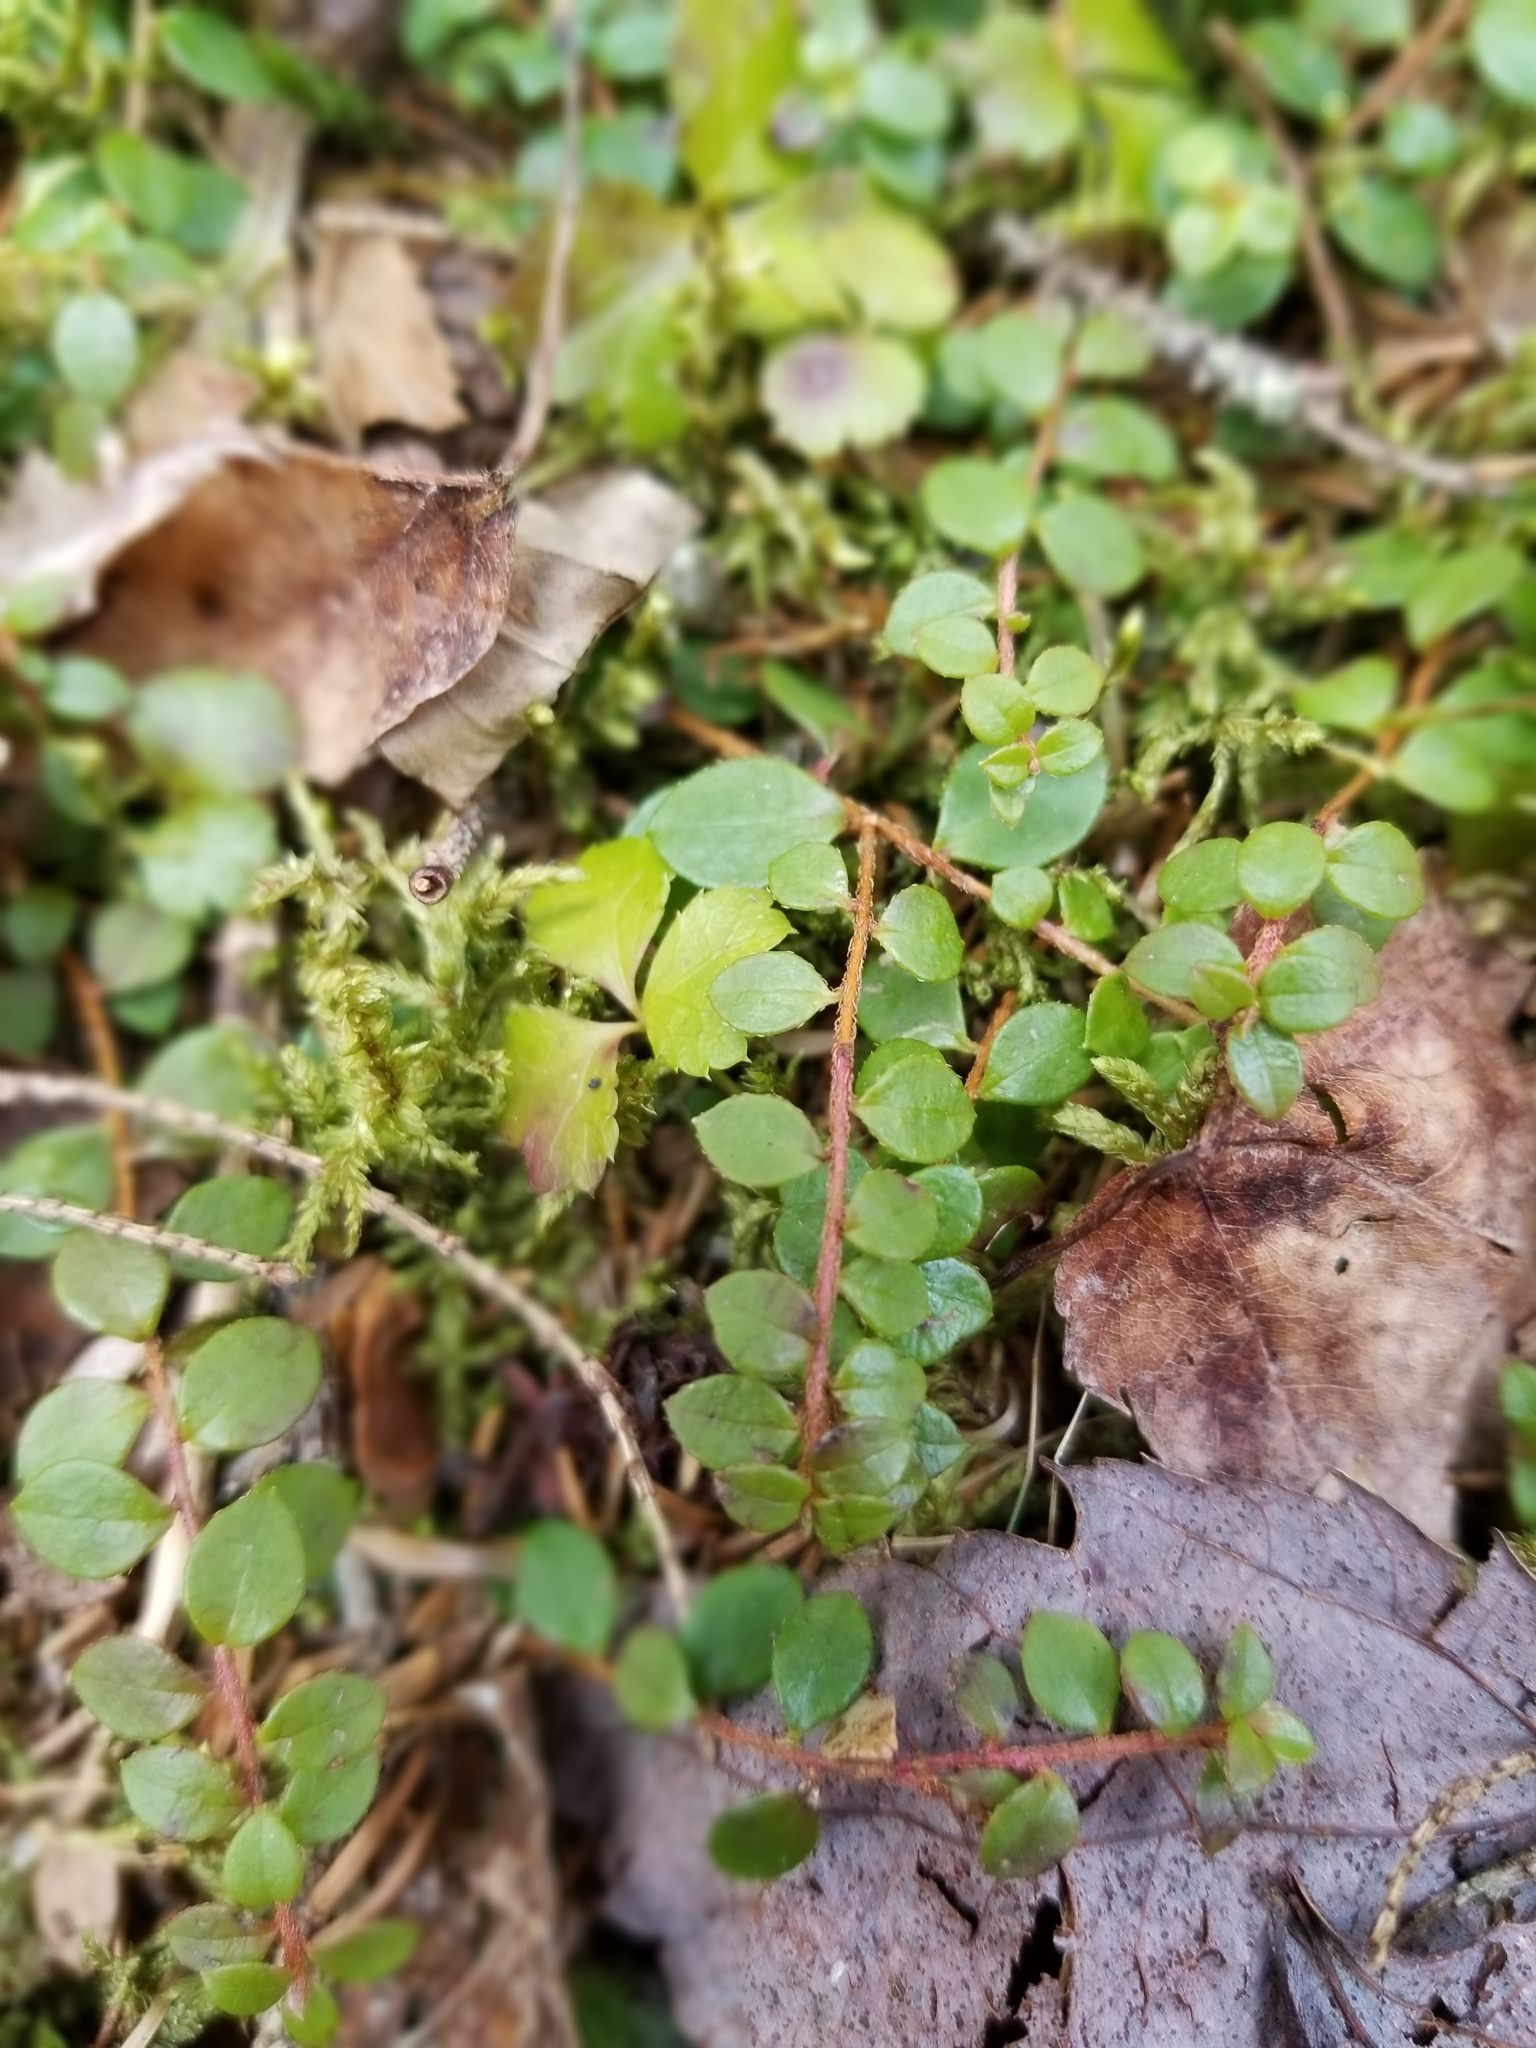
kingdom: Plantae
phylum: Tracheophyta
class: Magnoliopsida
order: Ericales
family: Ericaceae
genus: Gaultheria
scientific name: Gaultheria hispidula
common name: Cancer wintergreen
